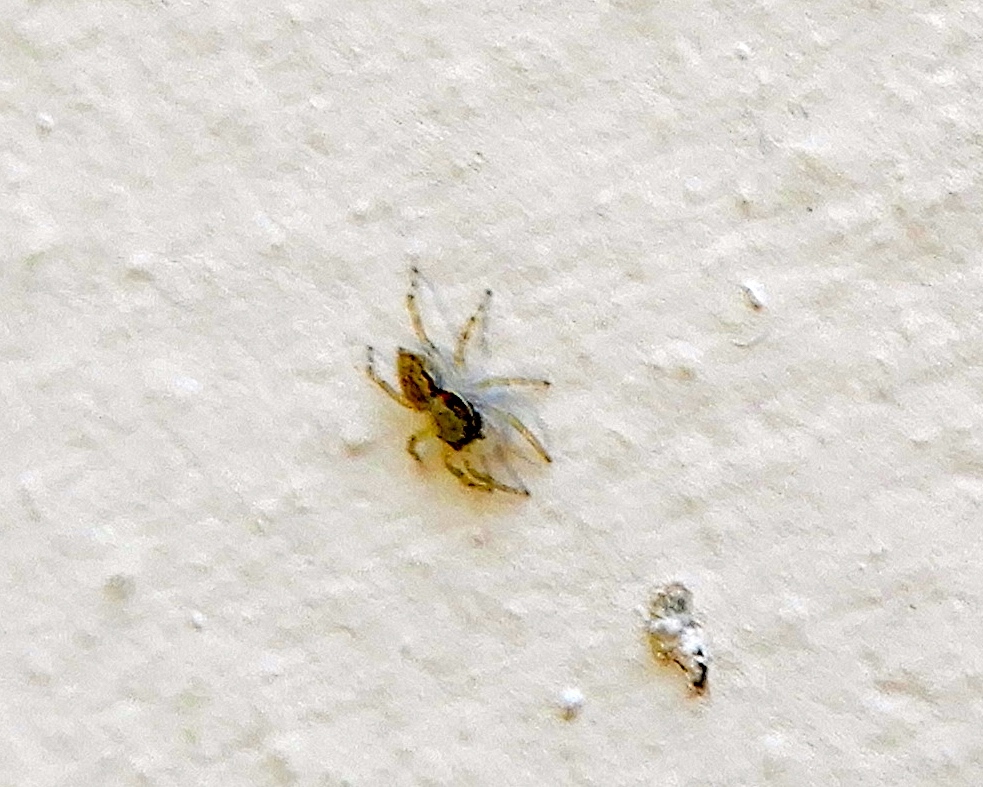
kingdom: Animalia
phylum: Arthropoda
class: Arachnida
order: Araneae
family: Salticidae
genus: Menemerus
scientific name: Menemerus bivittatus
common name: Gray wall jumper
